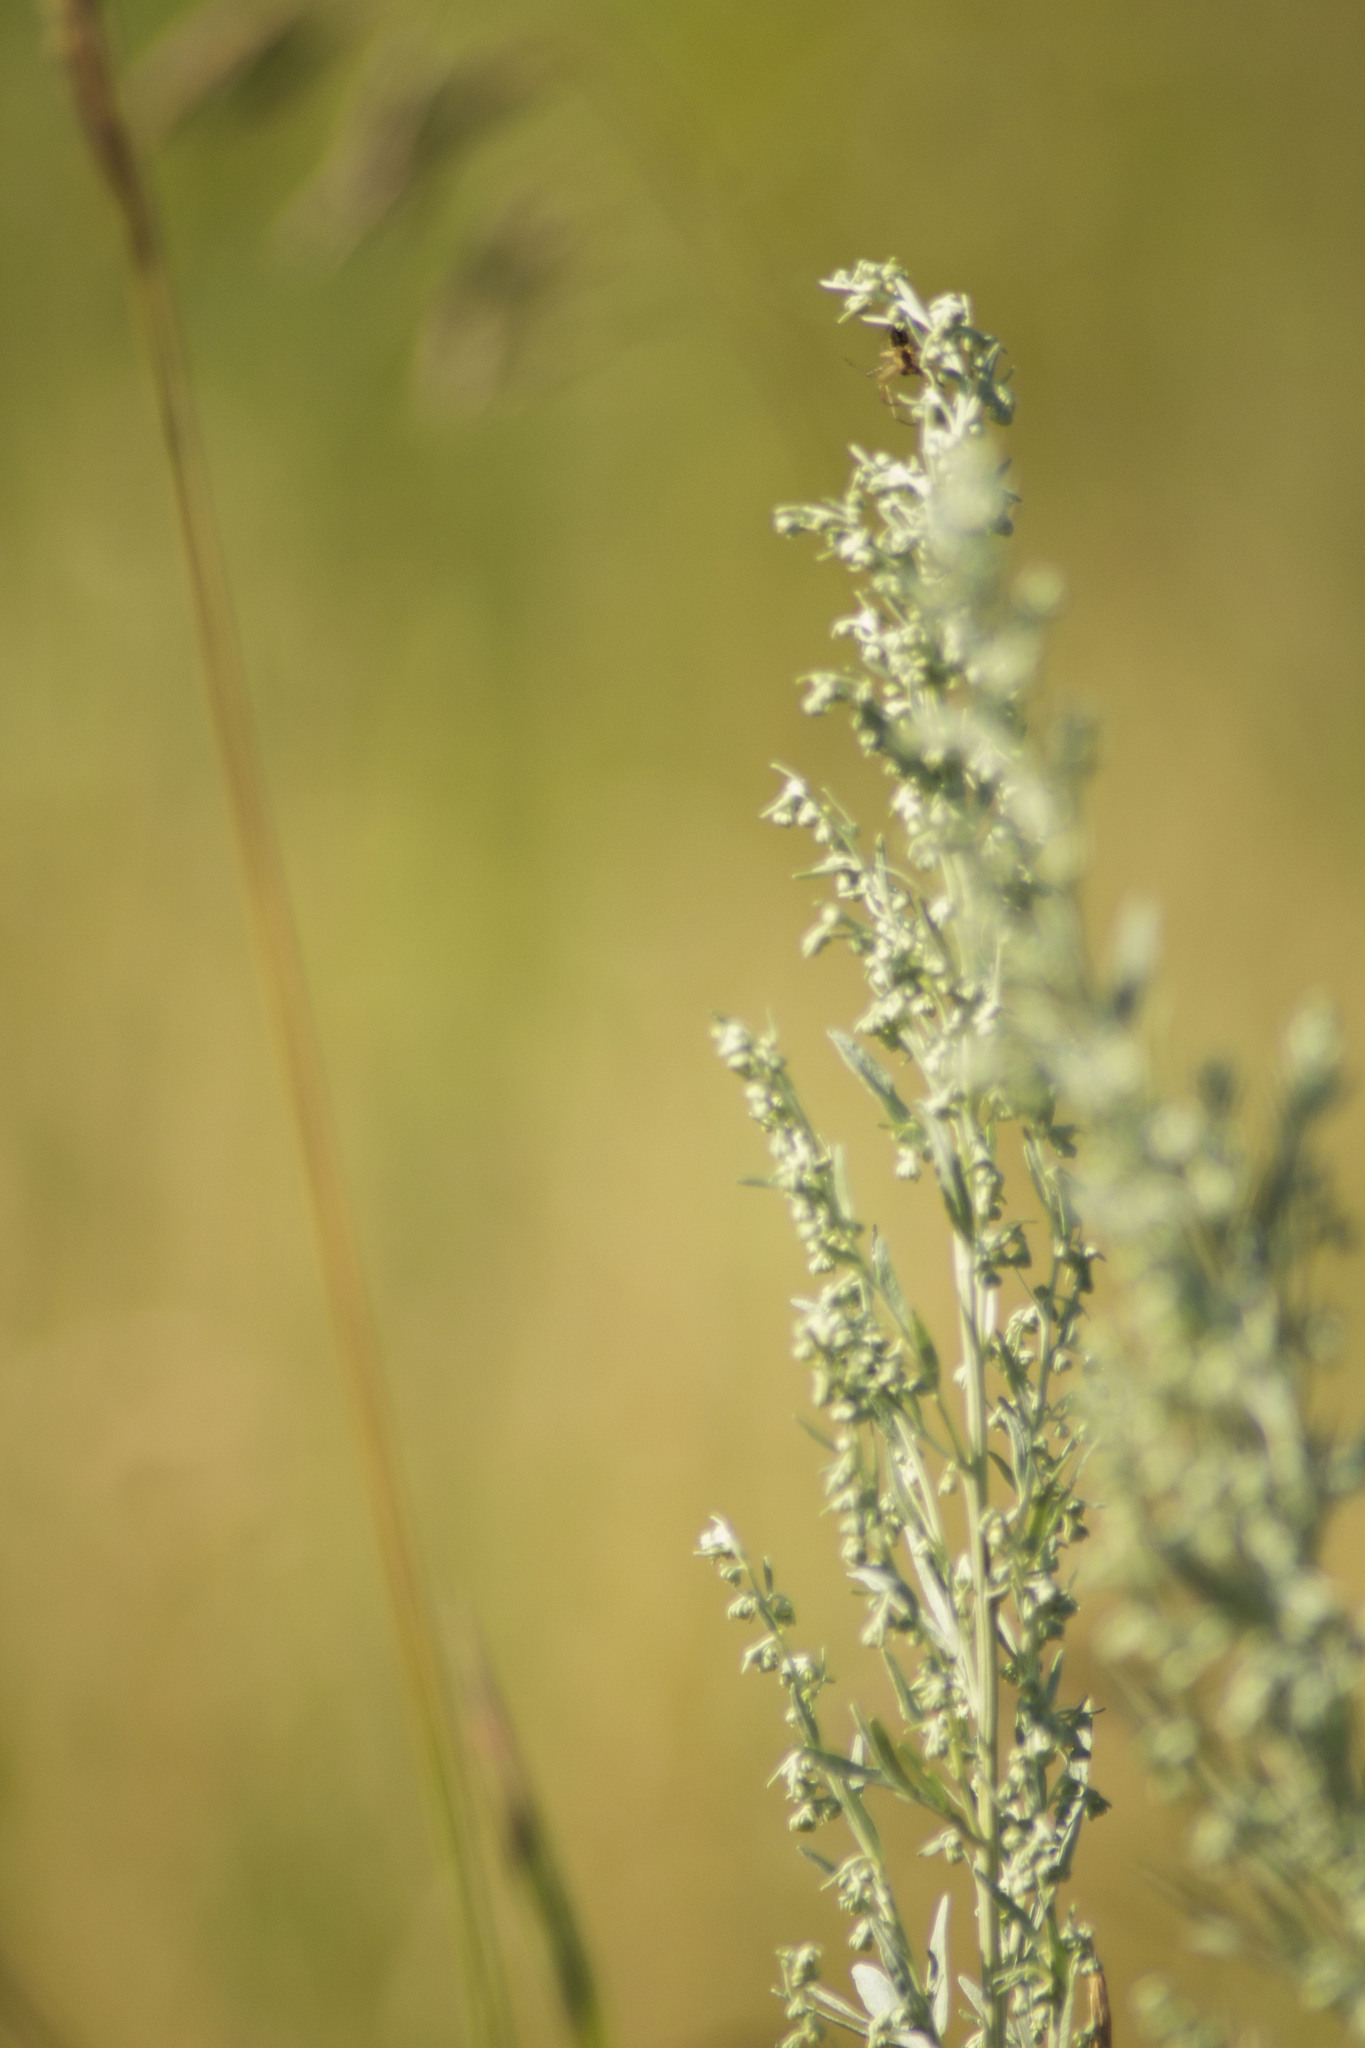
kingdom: Plantae
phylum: Tracheophyta
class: Magnoliopsida
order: Asterales
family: Asteraceae
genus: Artemisia
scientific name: Artemisia absinthium
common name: Wormwood
